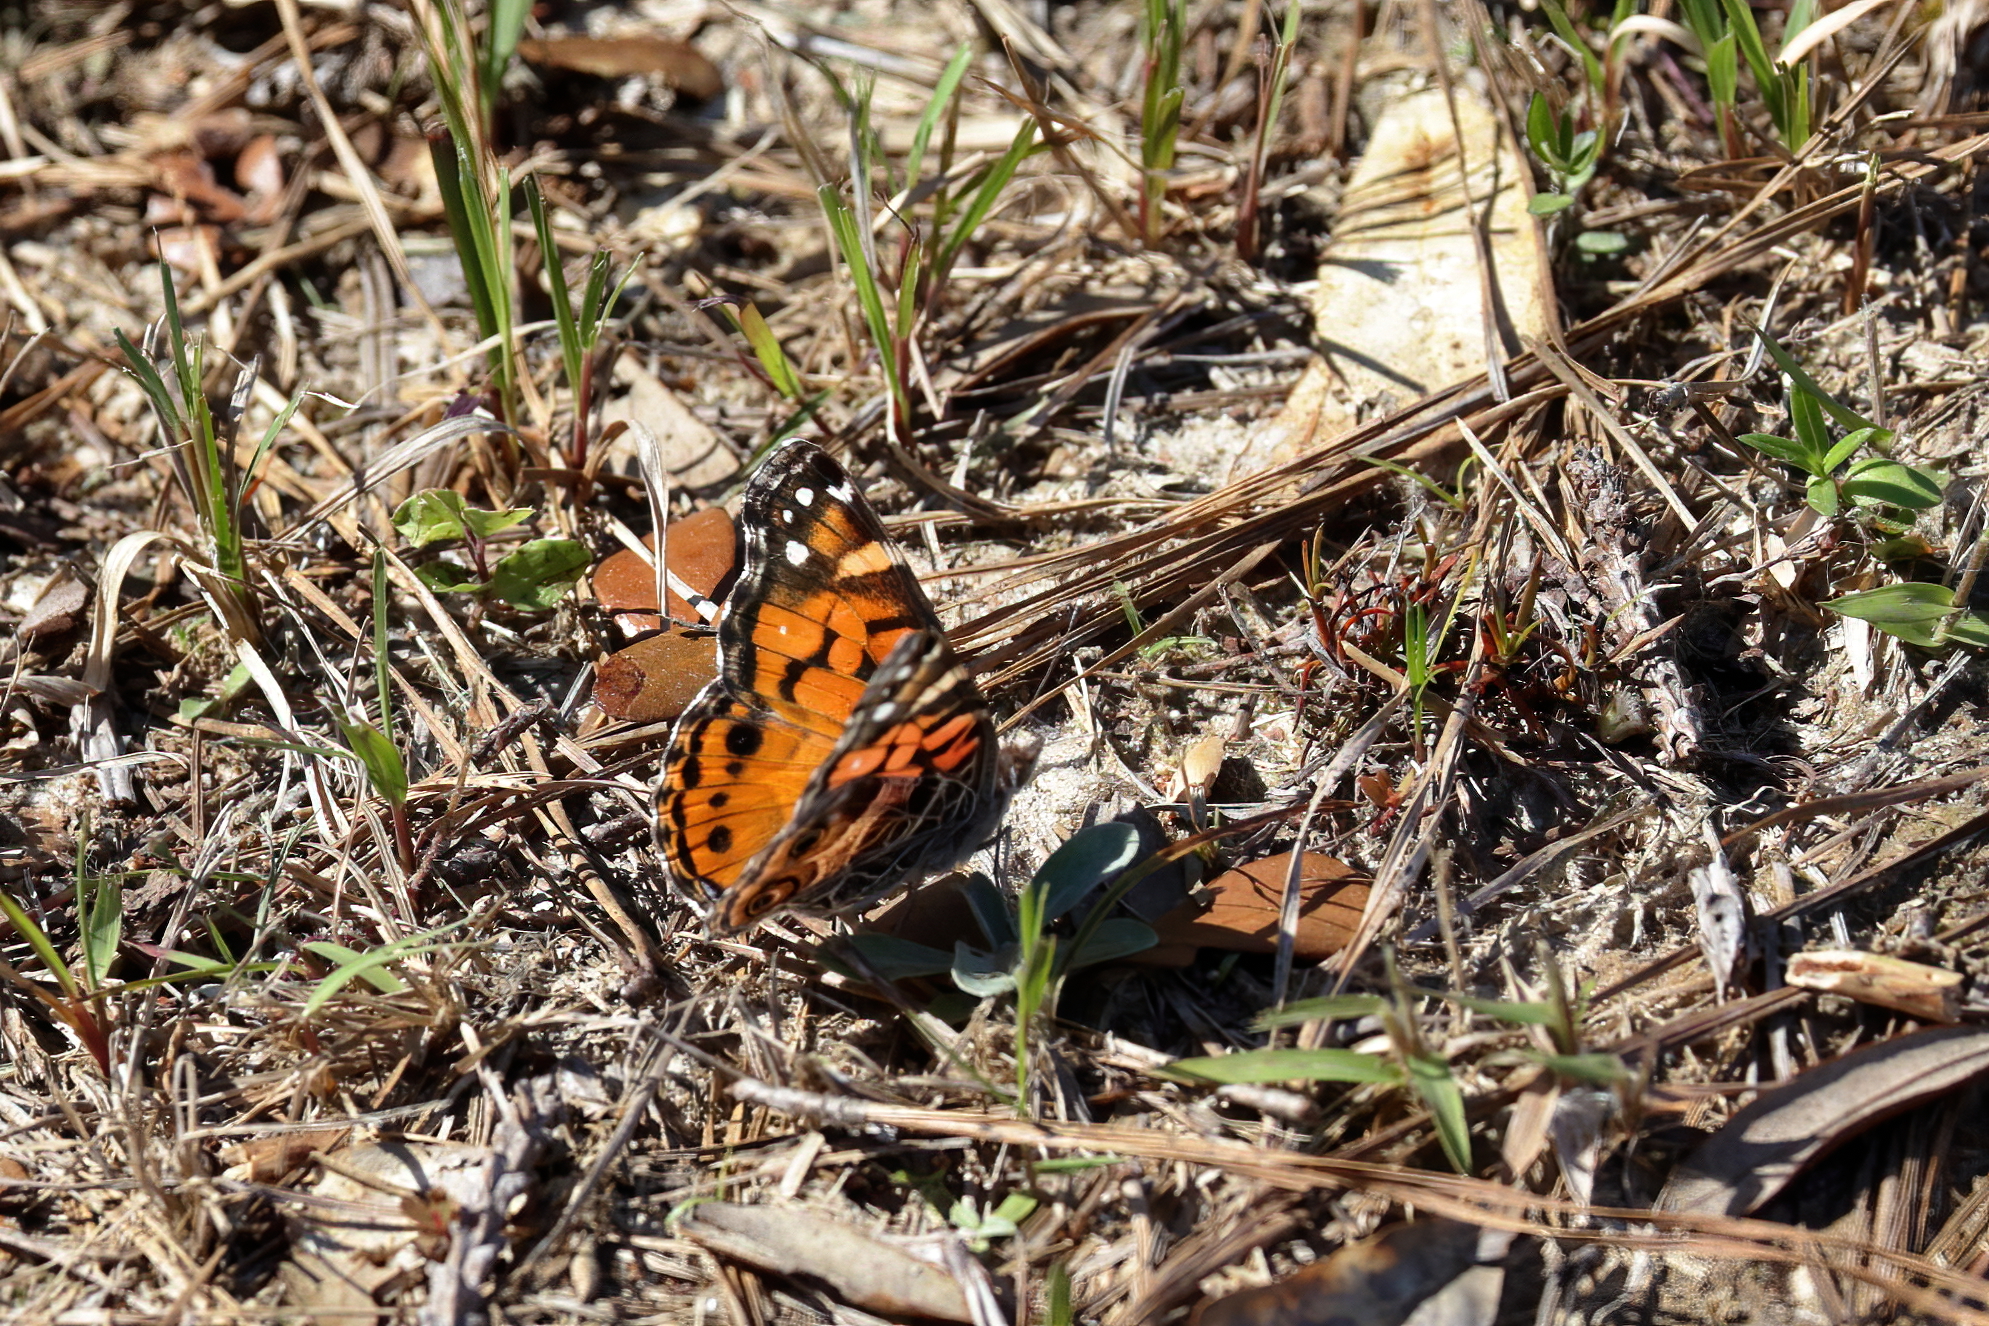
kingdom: Animalia
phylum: Arthropoda
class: Insecta
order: Lepidoptera
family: Nymphalidae
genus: Vanessa
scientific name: Vanessa virginiensis
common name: American lady
